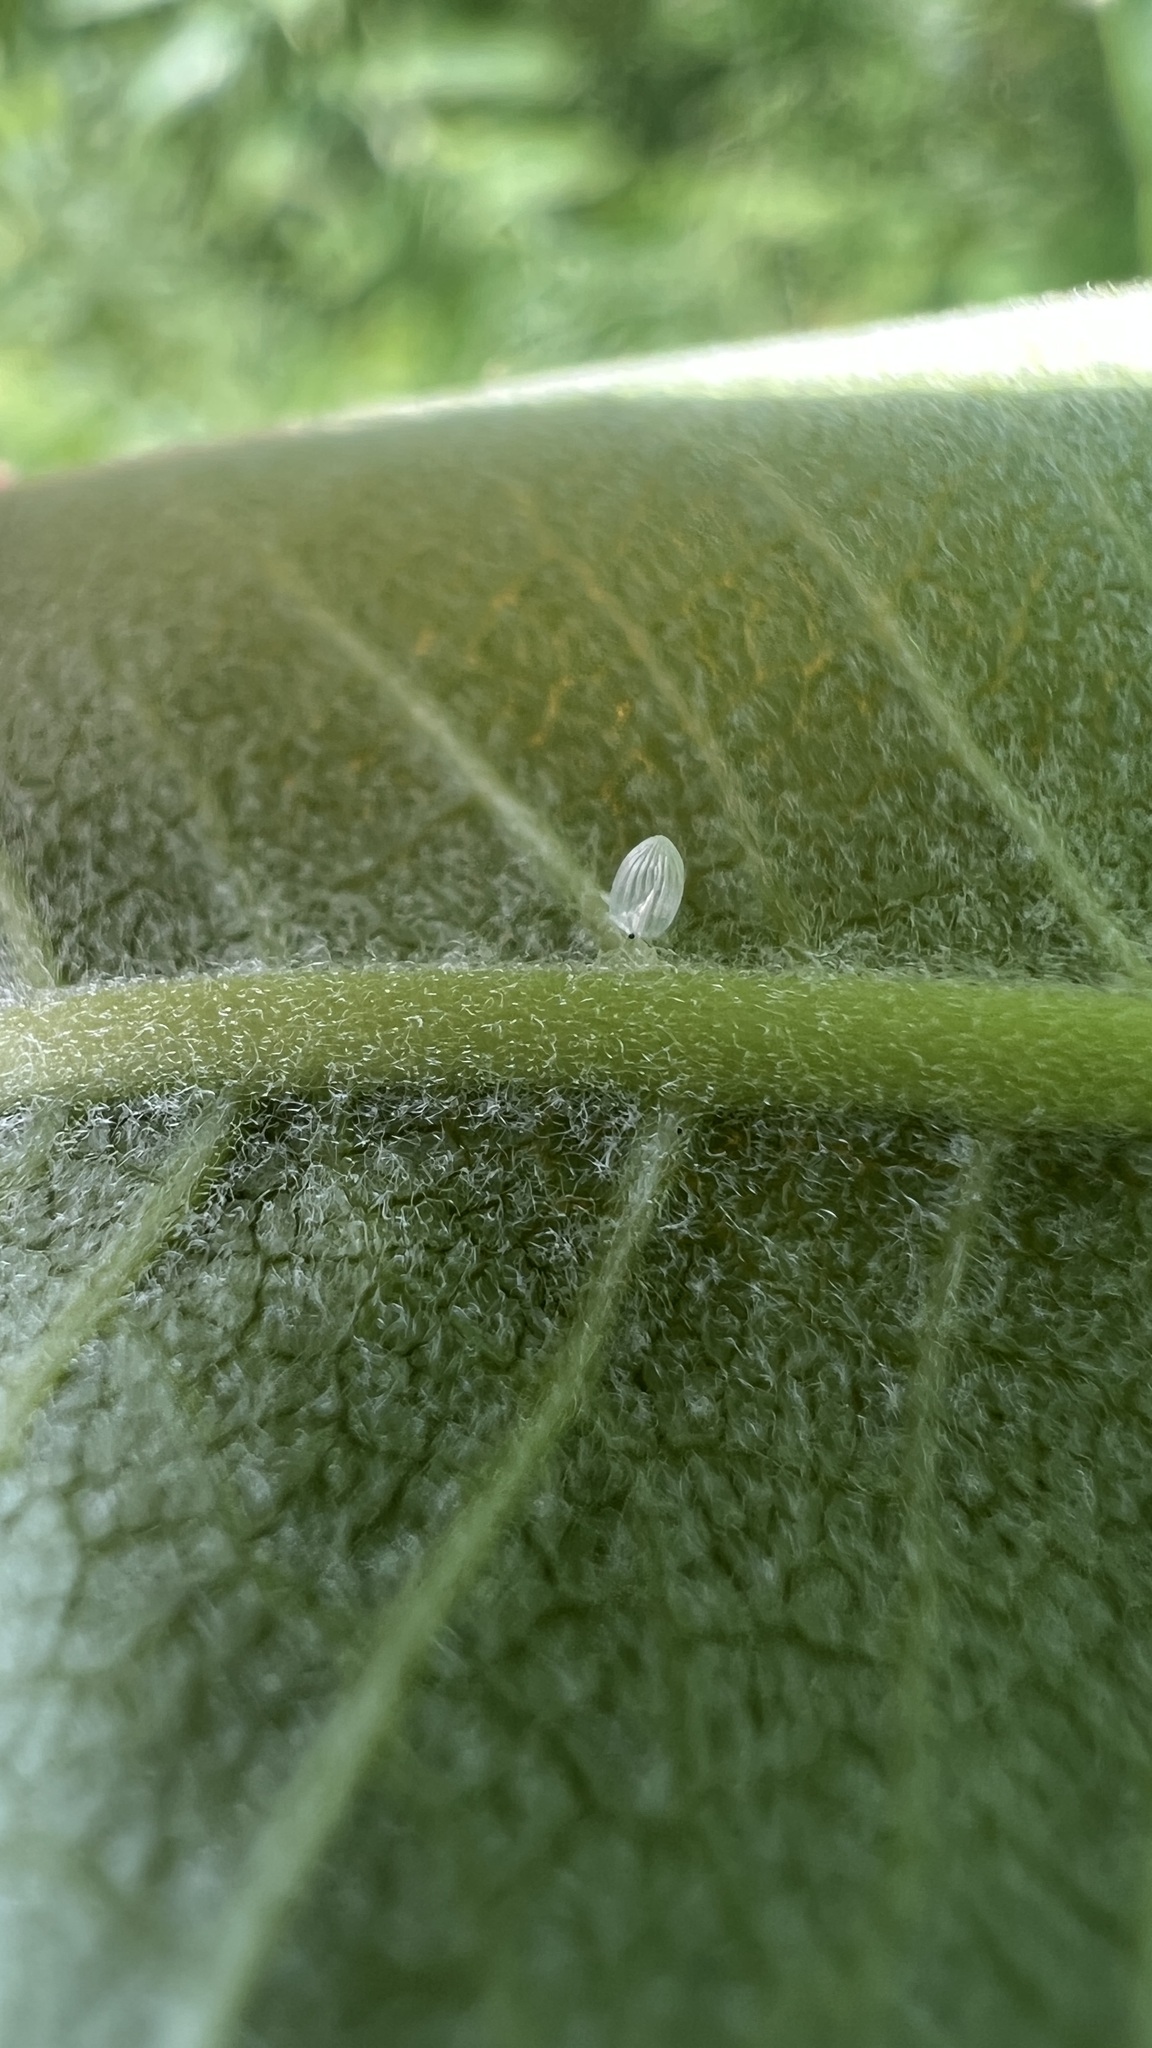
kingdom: Animalia
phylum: Arthropoda
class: Insecta
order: Lepidoptera
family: Nymphalidae
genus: Danaus
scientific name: Danaus plexippus
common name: Monarch
